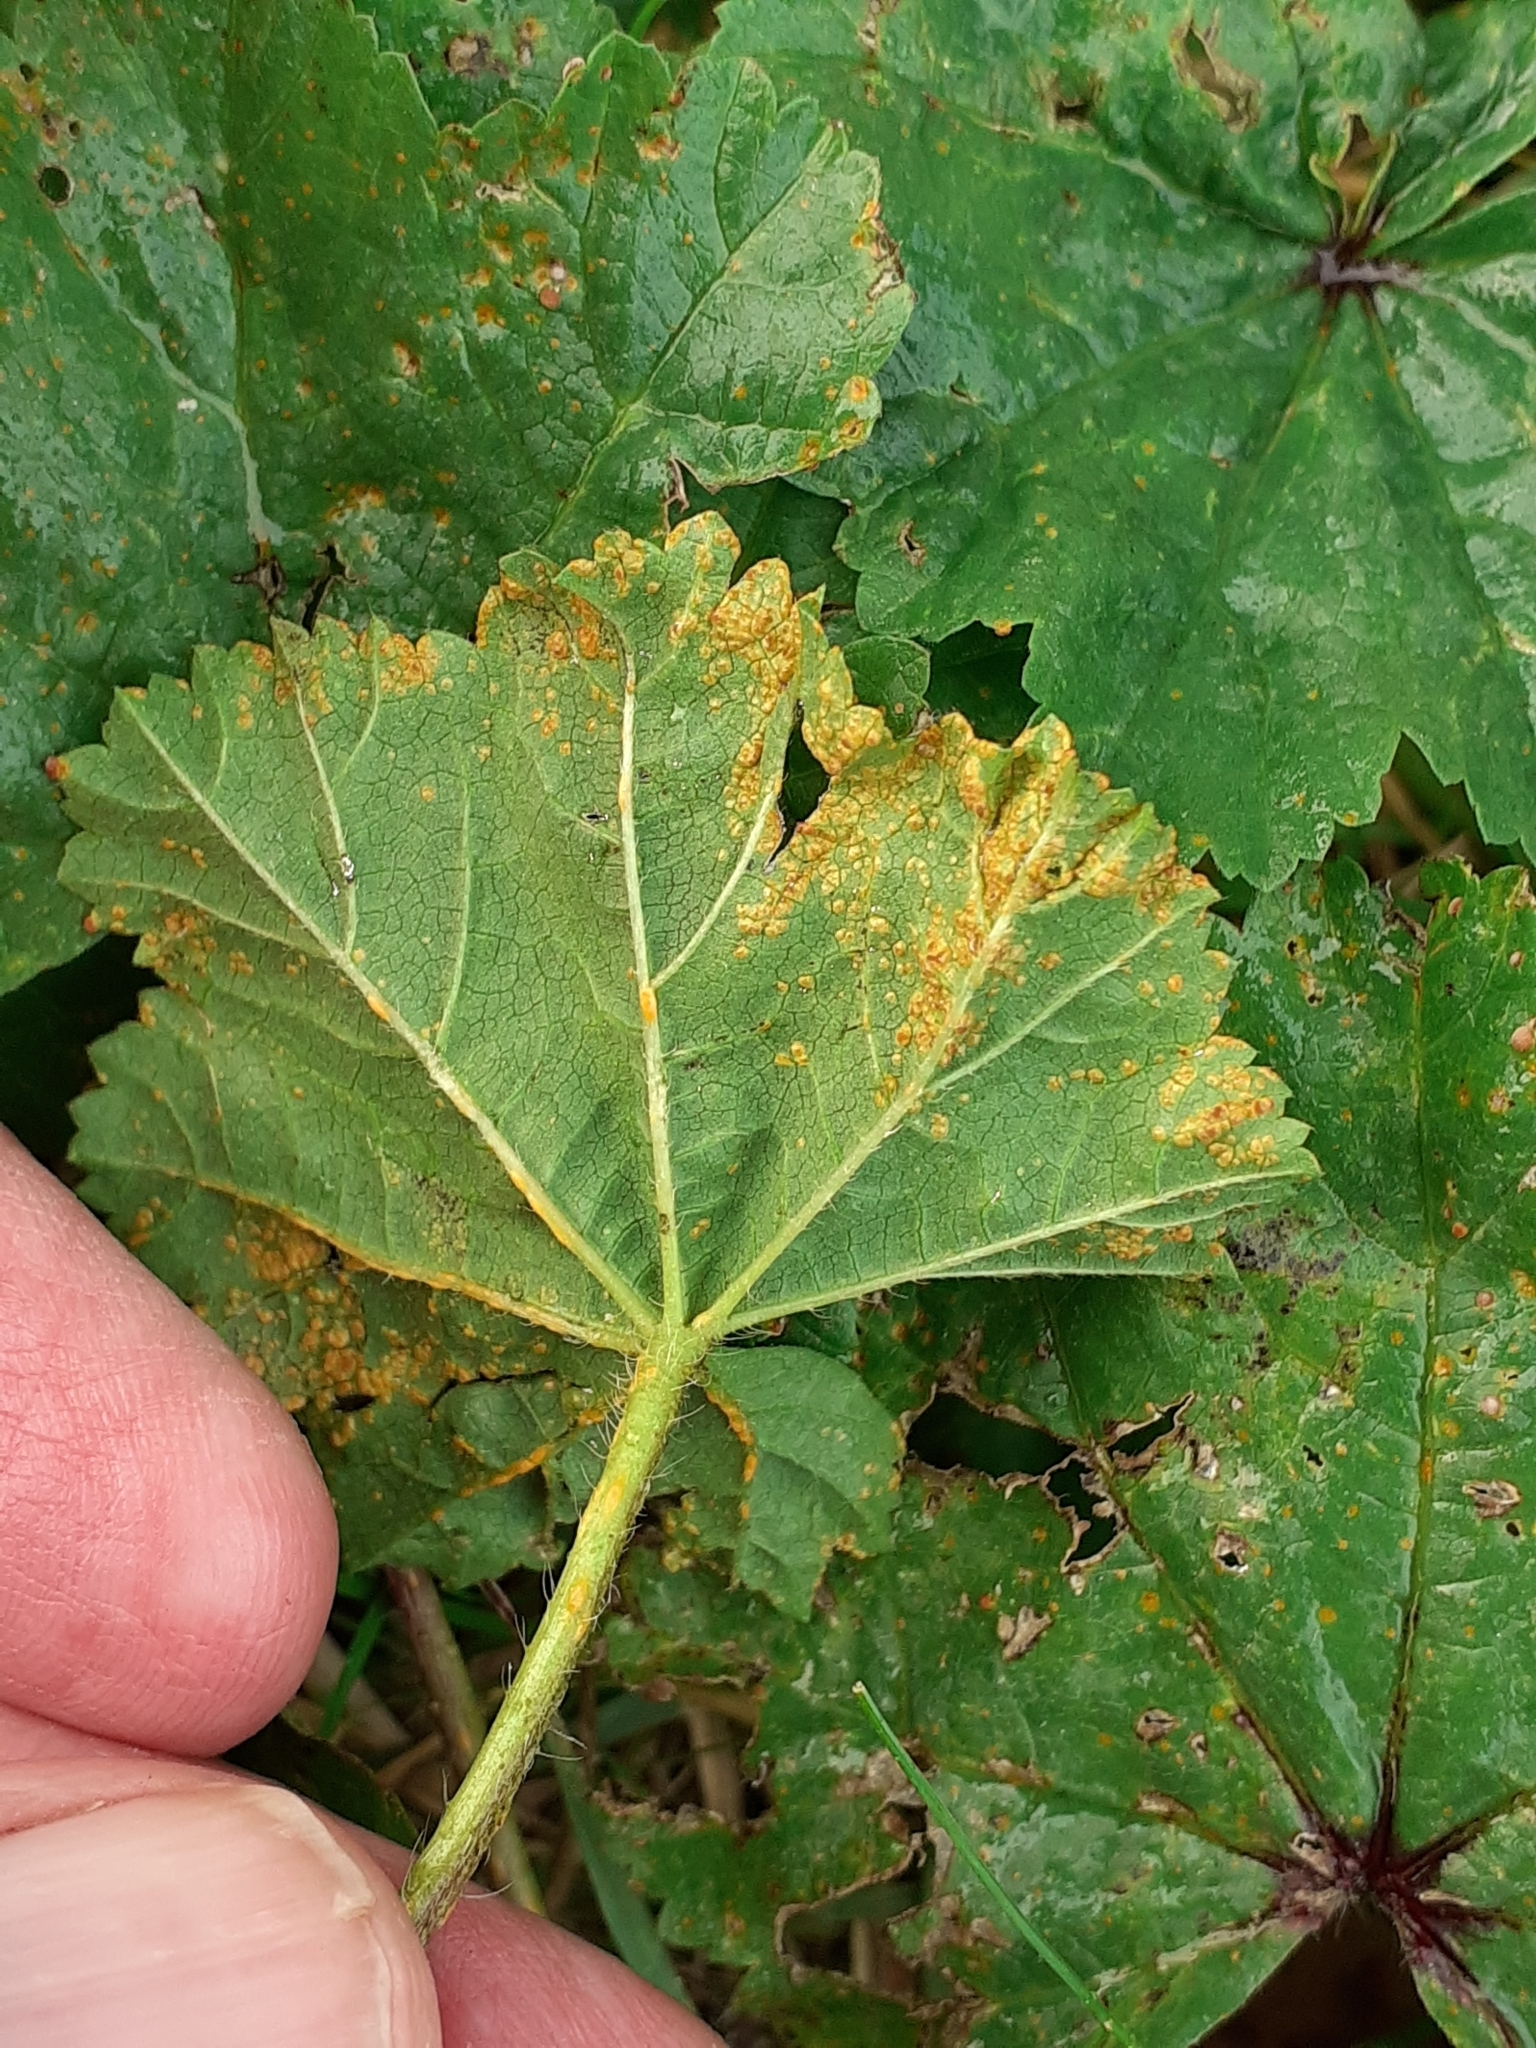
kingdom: Fungi
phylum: Basidiomycota
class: Pucciniomycetes
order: Pucciniales
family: Pucciniaceae
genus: Puccinia
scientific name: Puccinia malvacearum
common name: Hollyhock rust
